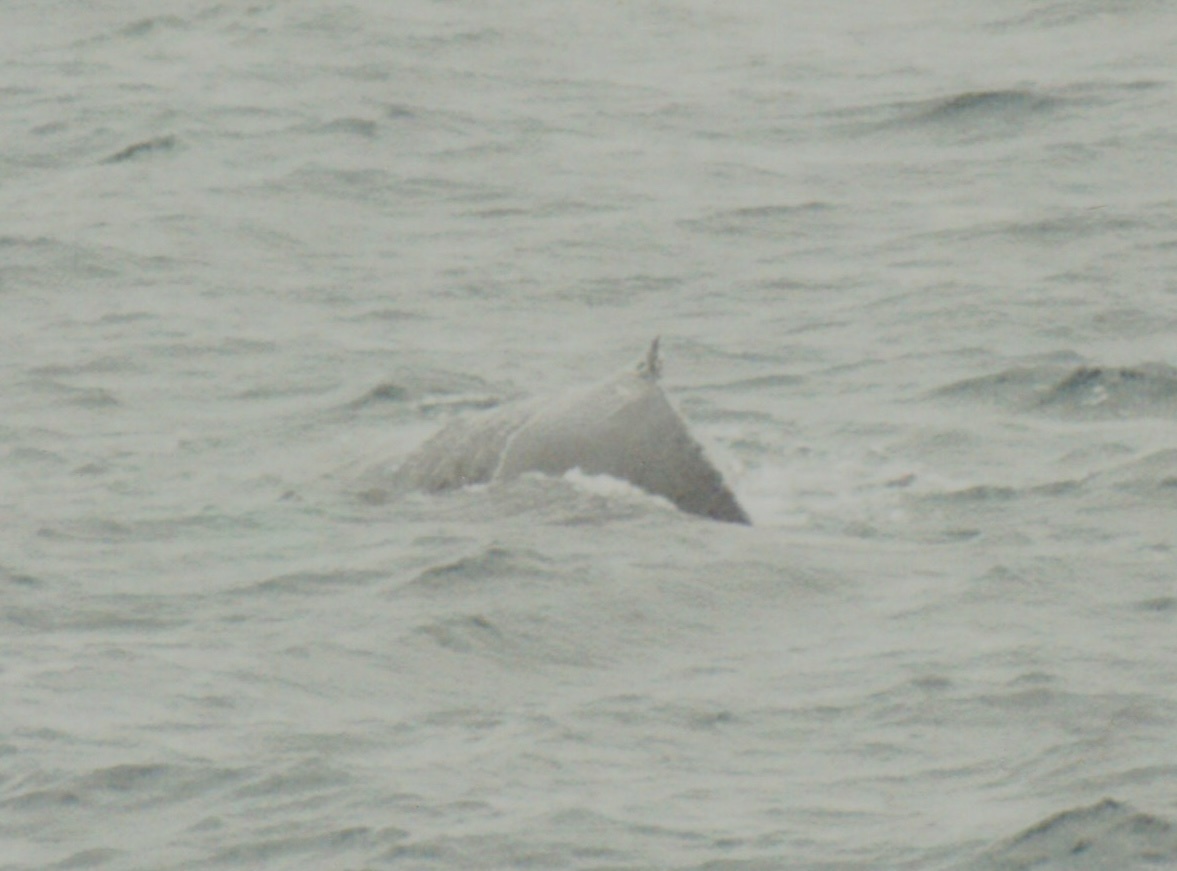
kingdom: Animalia
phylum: Chordata
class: Mammalia
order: Cetacea
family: Balaenopteridae
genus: Megaptera
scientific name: Megaptera novaeangliae
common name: Humpback whale
